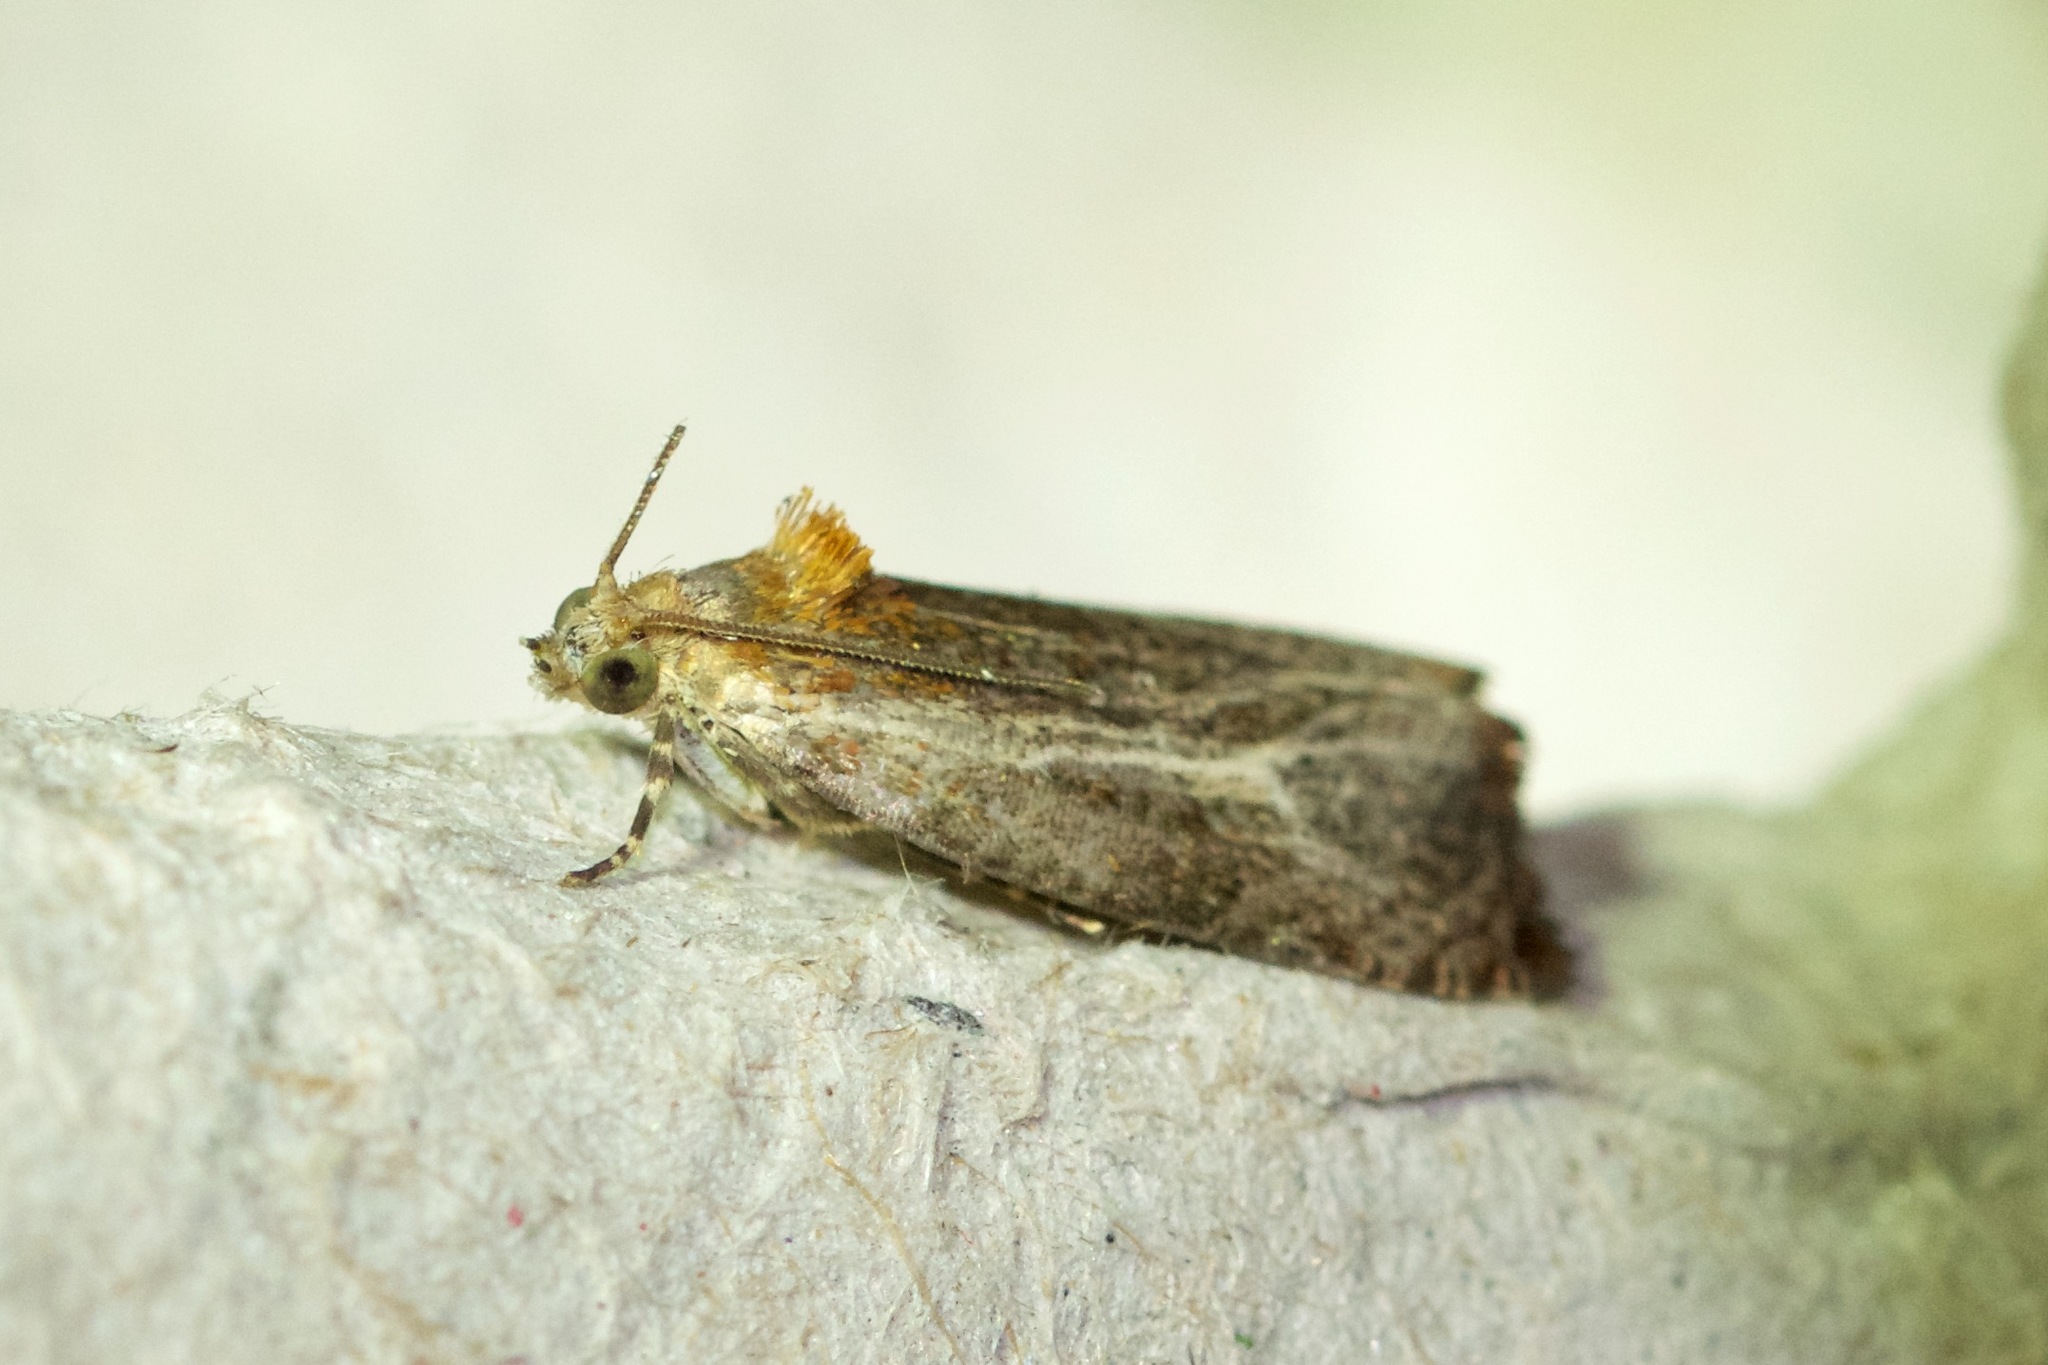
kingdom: Animalia
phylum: Arthropoda
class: Insecta
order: Lepidoptera
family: Tortricidae
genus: Olethreutes
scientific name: Olethreutes quadrifidum
